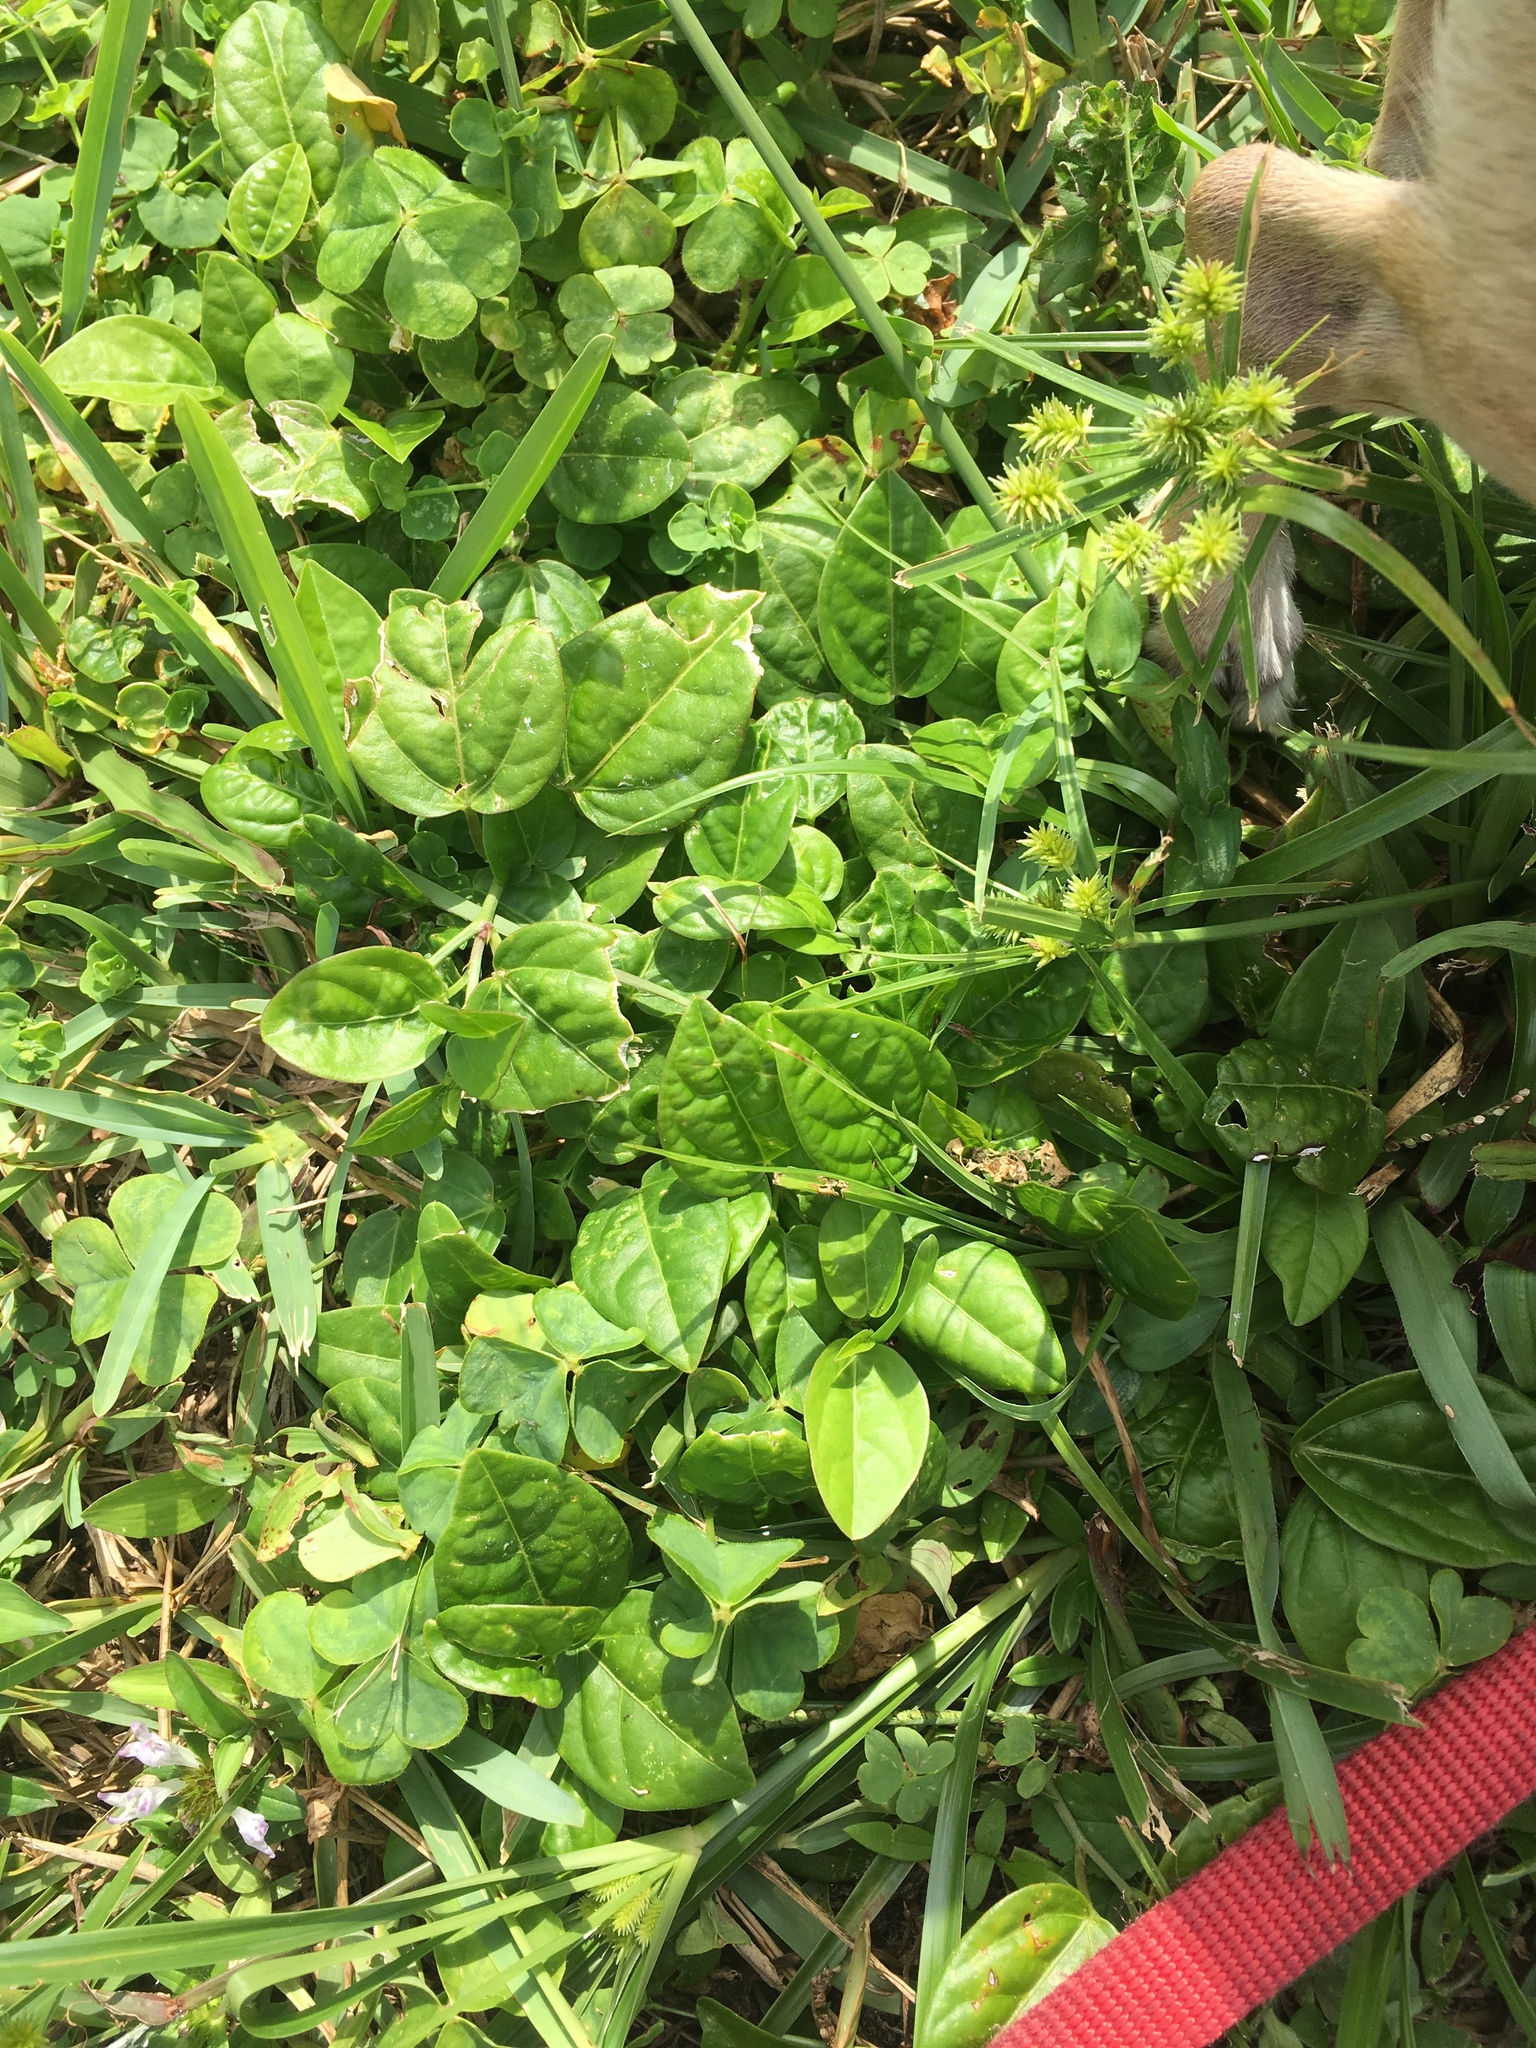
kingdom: Plantae
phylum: Tracheophyta
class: Magnoliopsida
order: Malpighiales
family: Passifloraceae
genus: Passiflora
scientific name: Passiflora pallida
